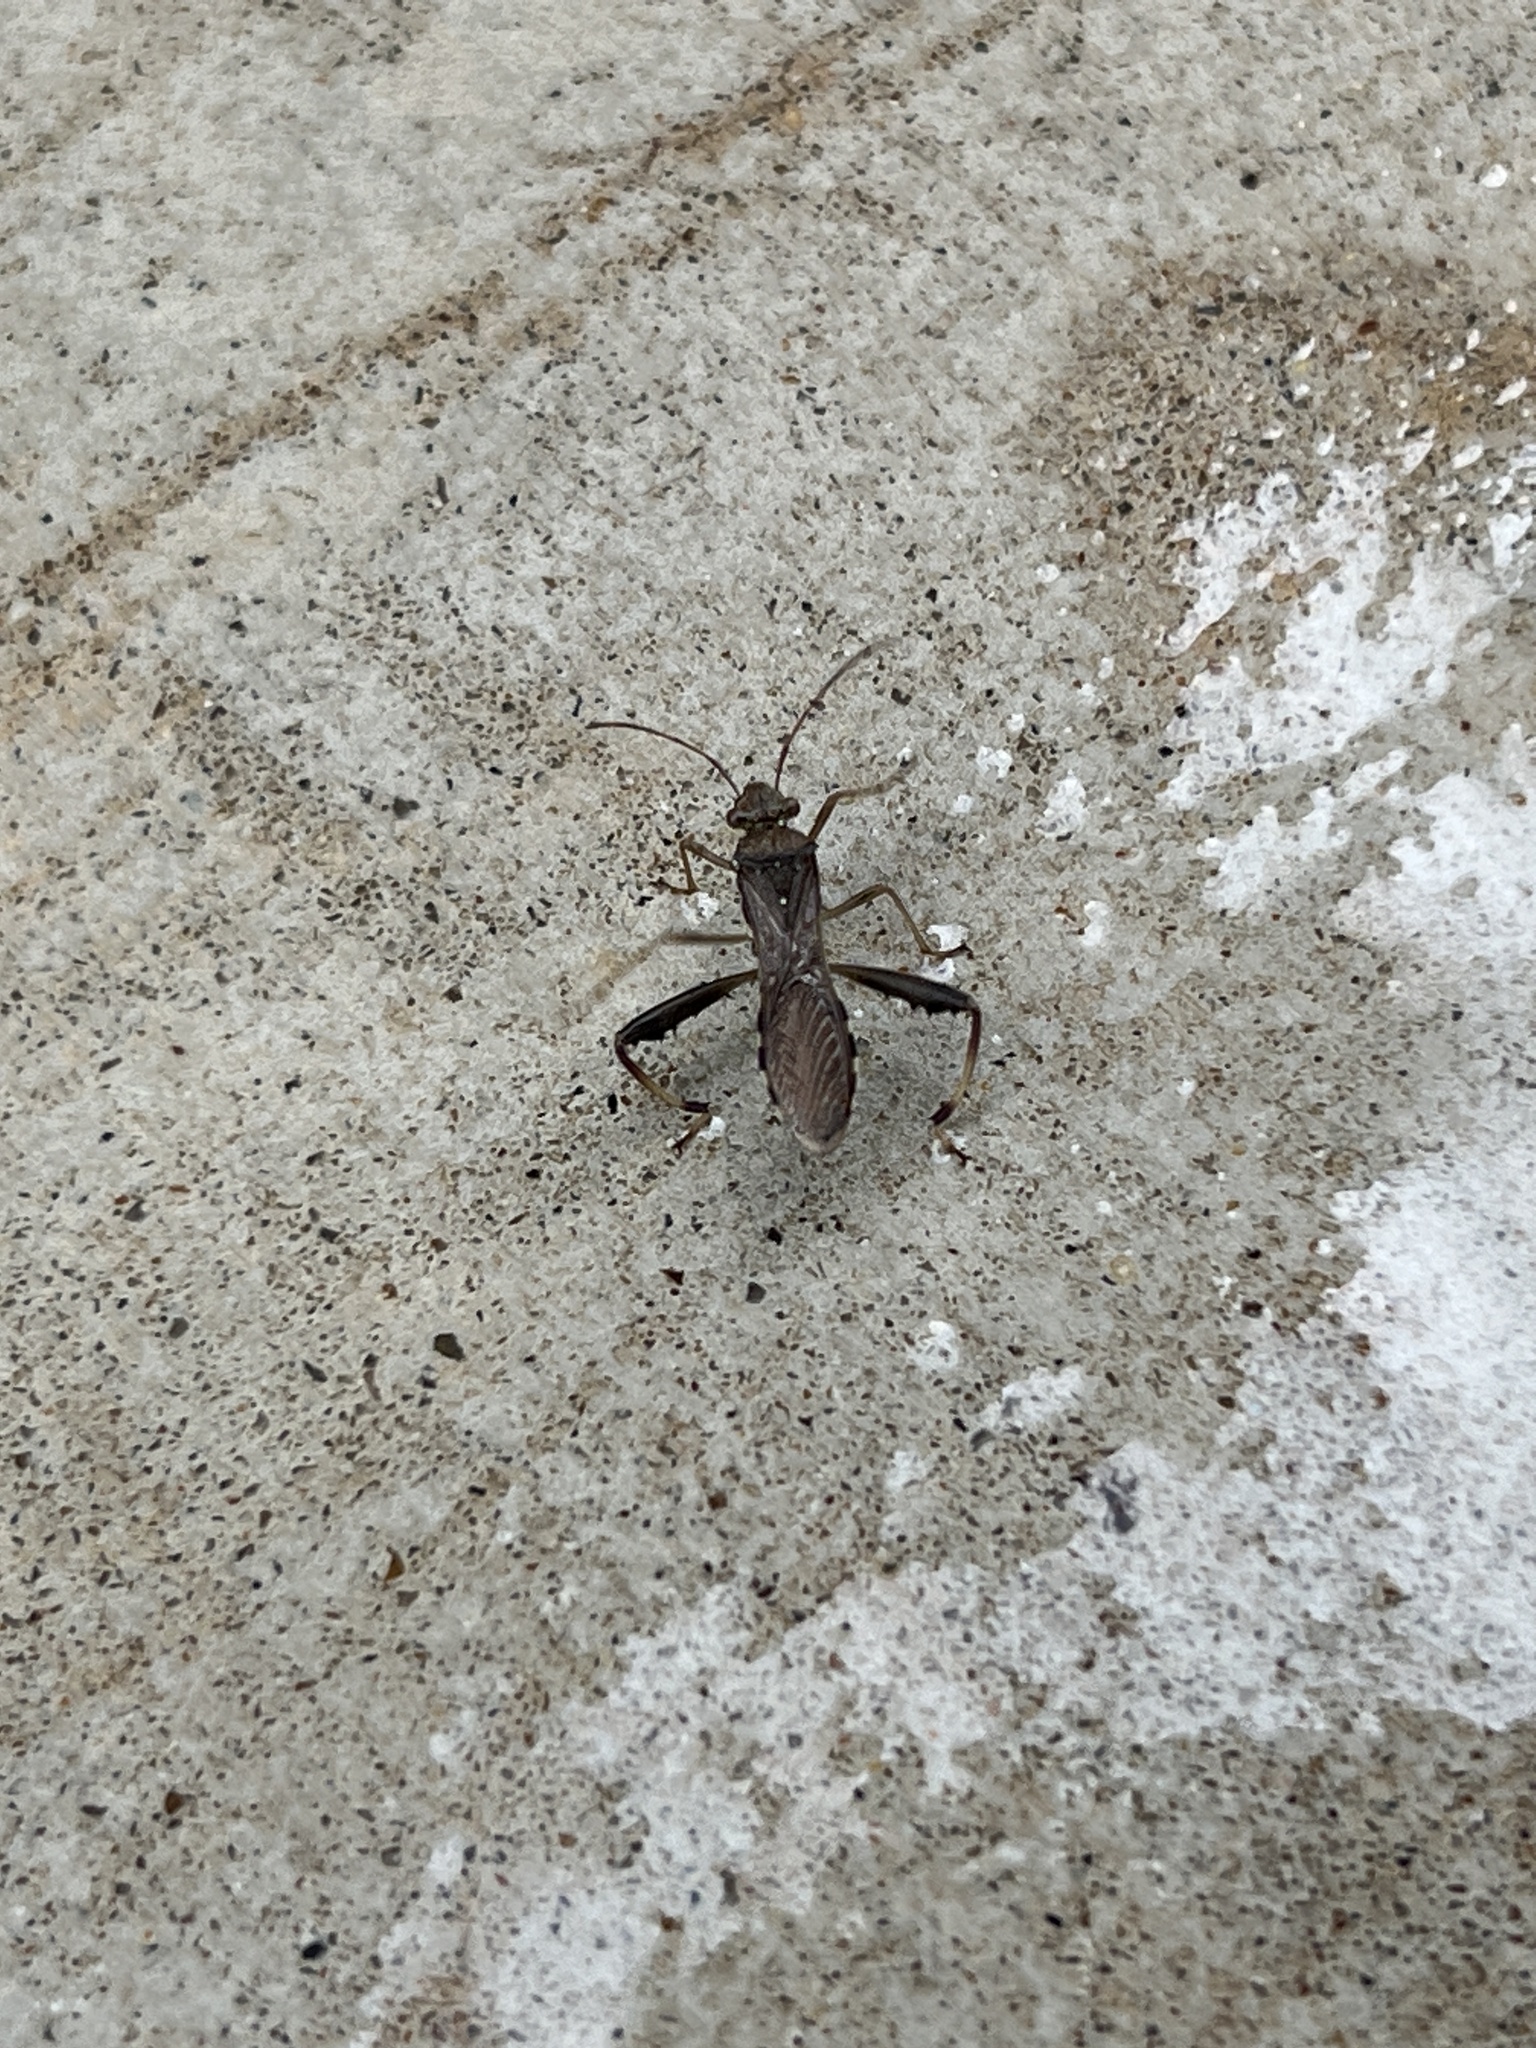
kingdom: Animalia
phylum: Arthropoda
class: Insecta
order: Hemiptera
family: Alydidae
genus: Hyalymenus
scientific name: Hyalymenus tarsatus
